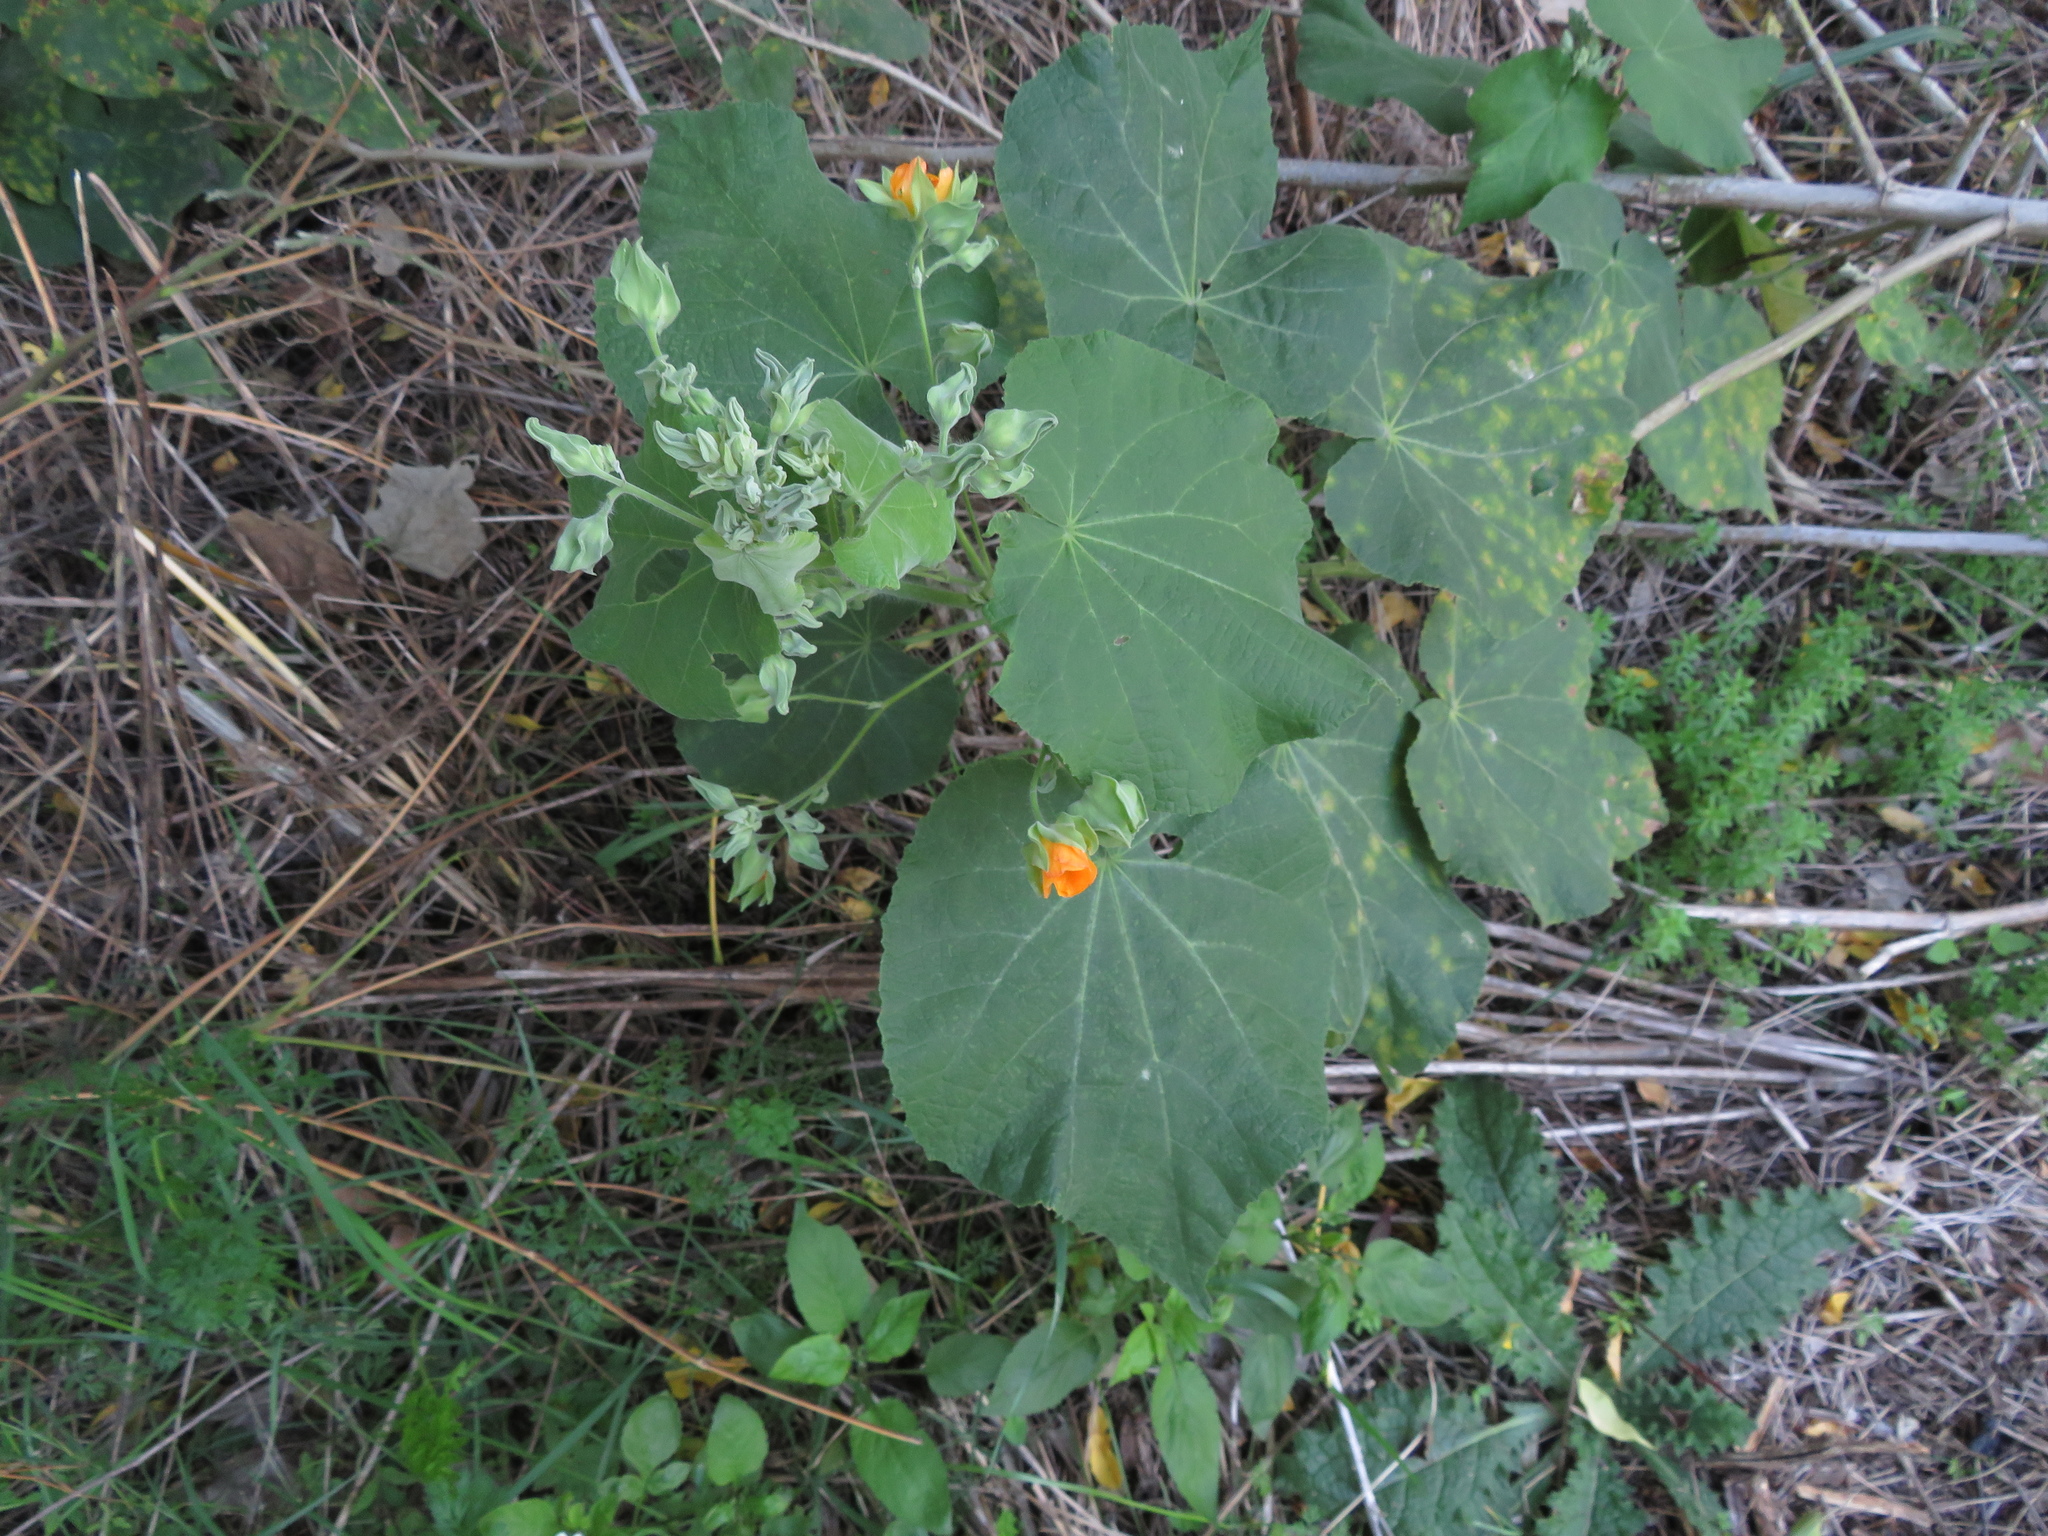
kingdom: Plantae
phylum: Tracheophyta
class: Magnoliopsida
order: Malvales
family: Malvaceae
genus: Abutilon
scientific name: Abutilon grandifolium
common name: Hairy abutilon
